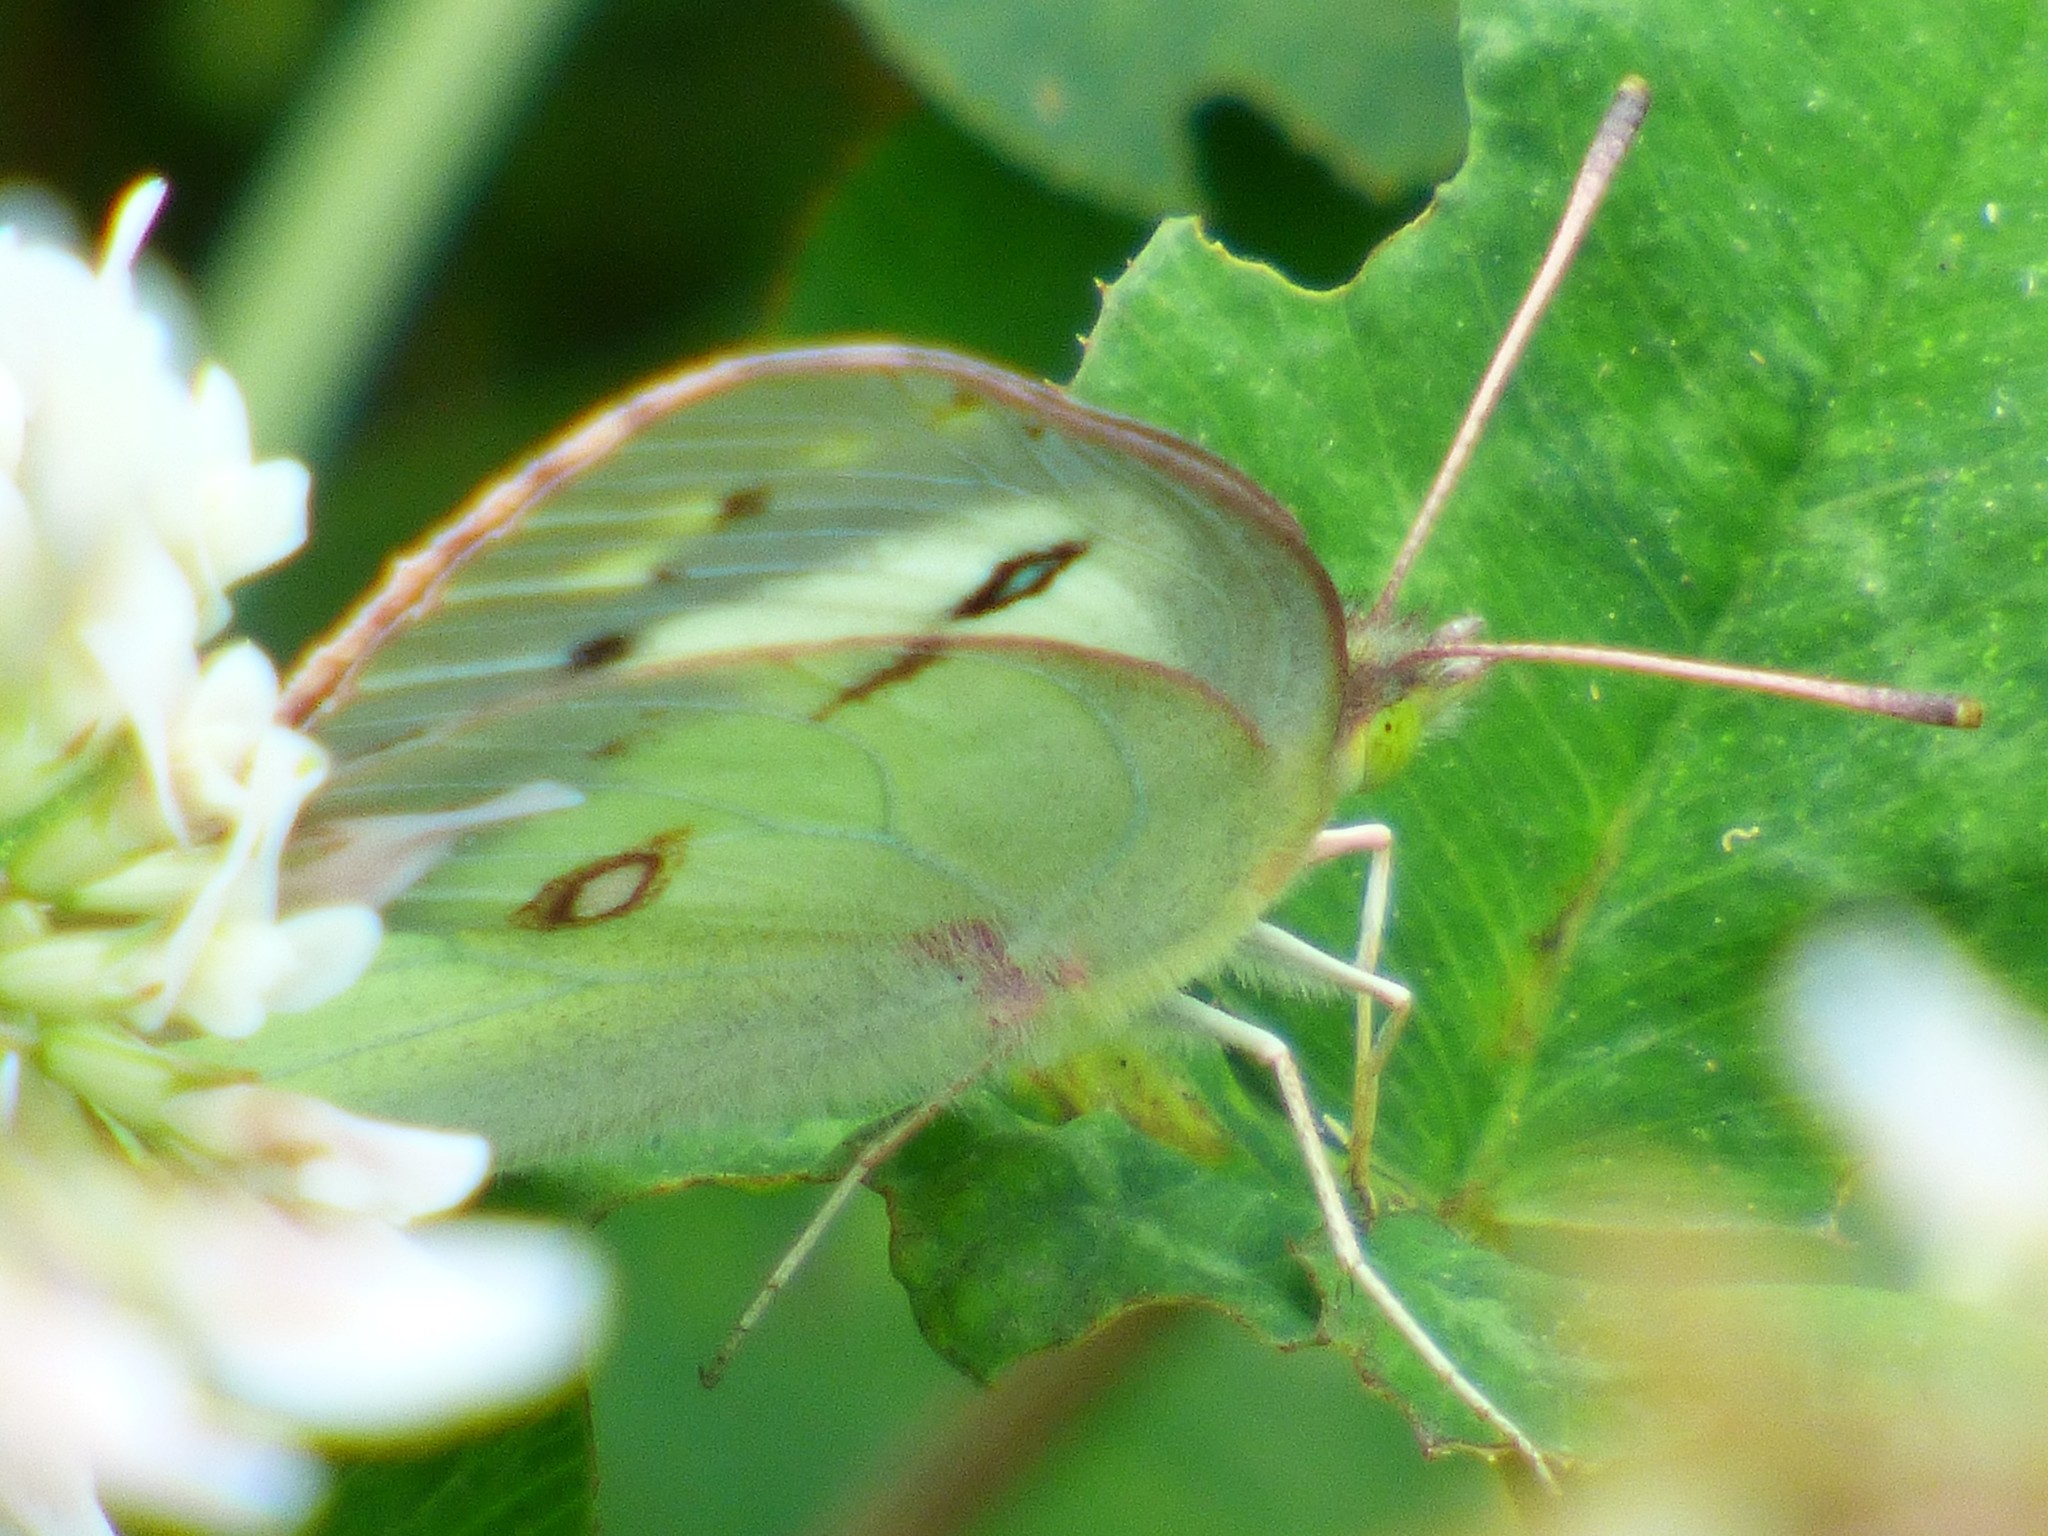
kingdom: Animalia
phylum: Arthropoda
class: Insecta
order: Lepidoptera
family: Pieridae
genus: Colias
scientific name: Colias
